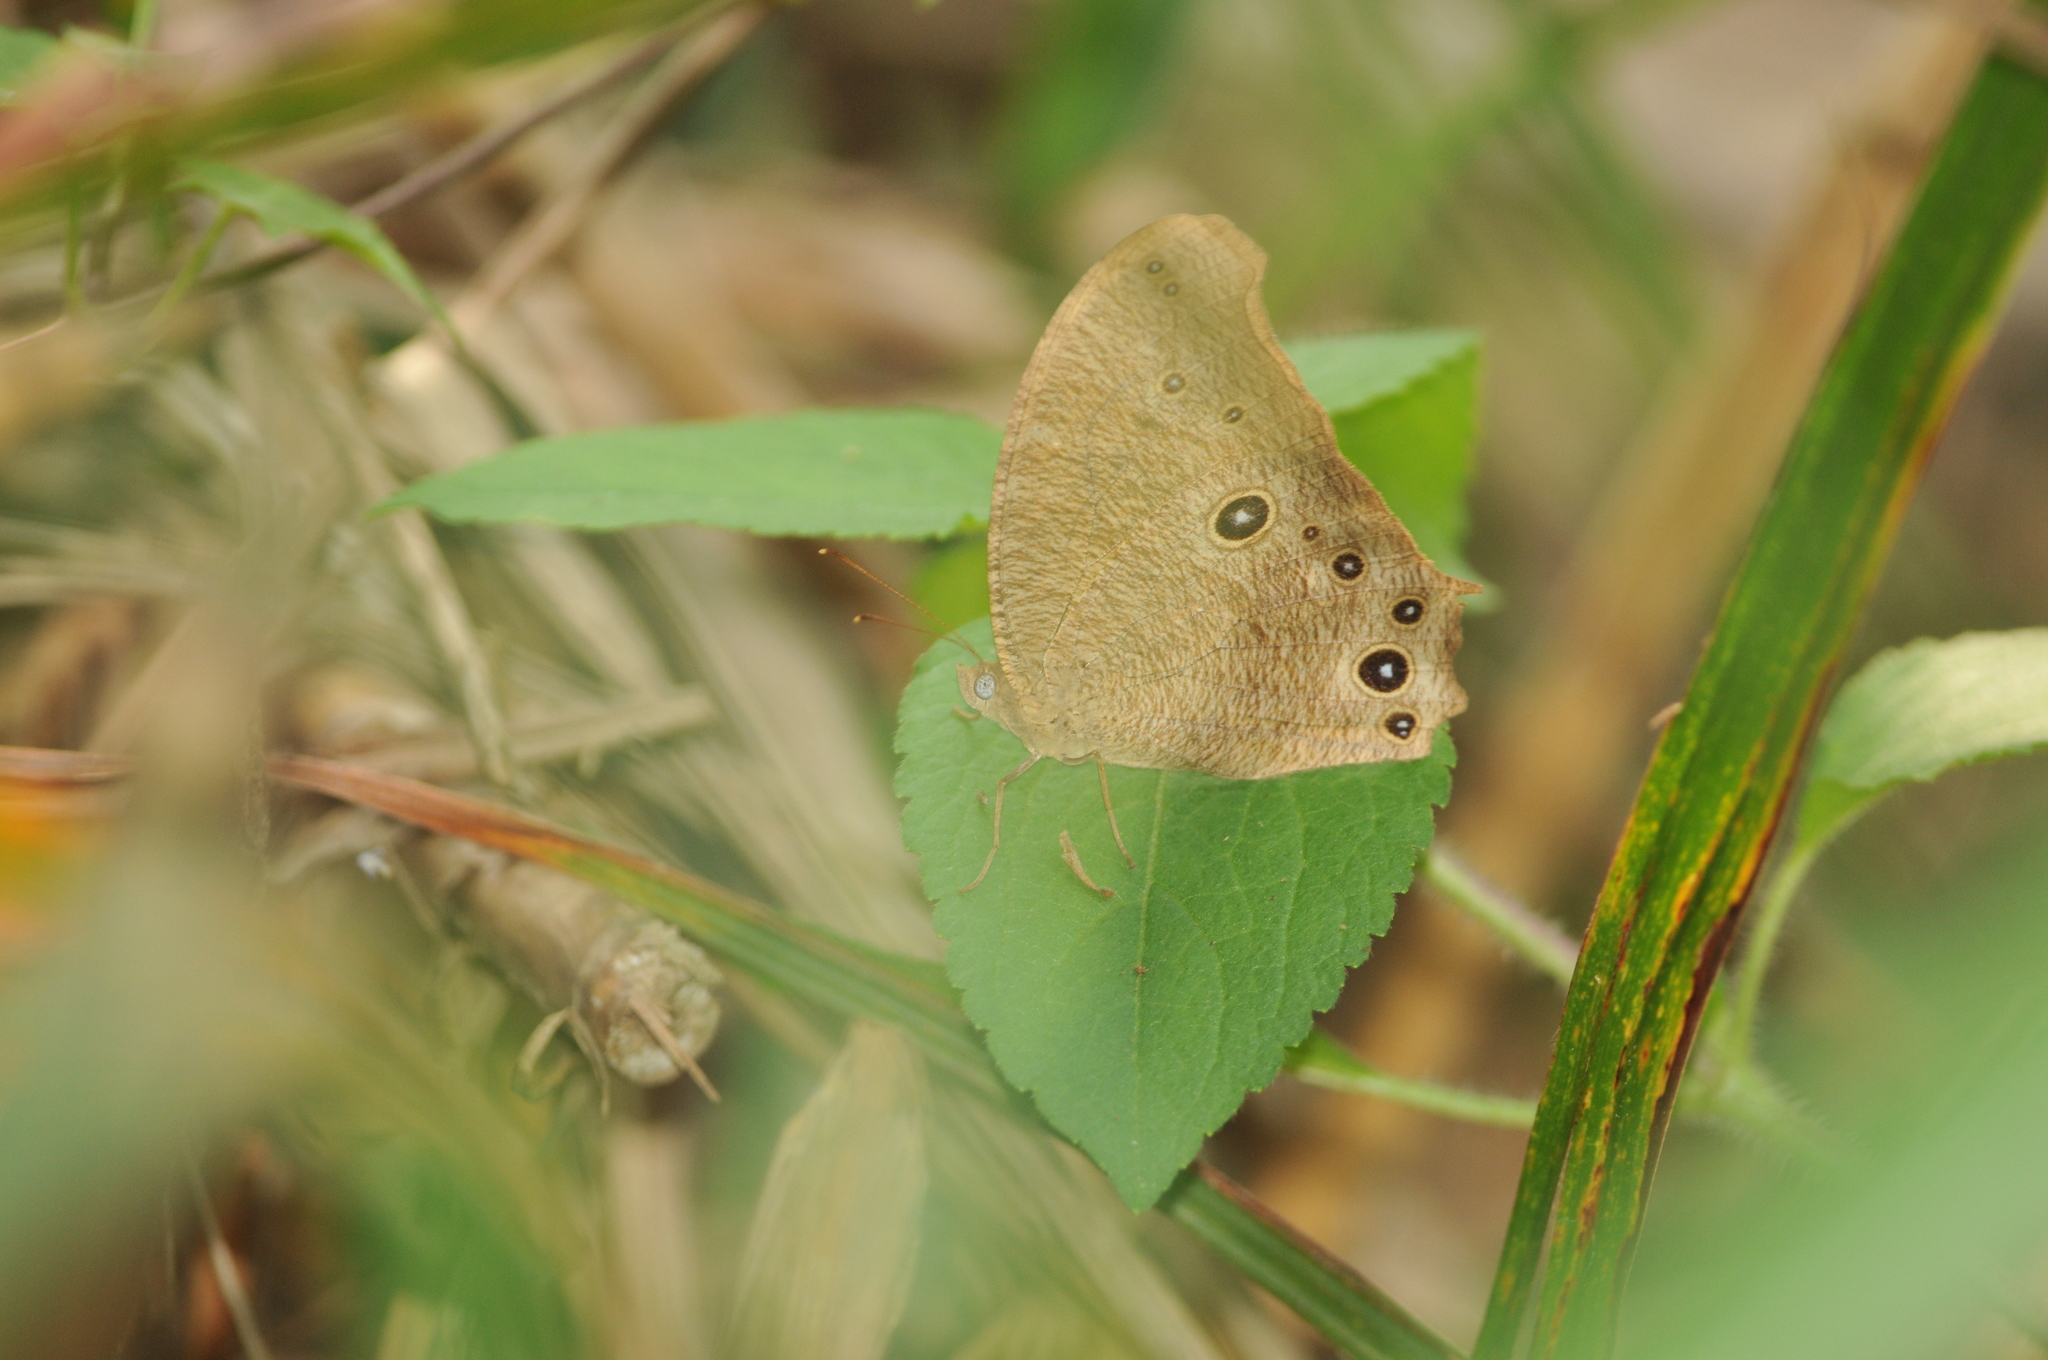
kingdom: Animalia
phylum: Arthropoda
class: Insecta
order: Lepidoptera
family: Nymphalidae
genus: Melanitis
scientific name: Melanitis leda
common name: Twilight brown
